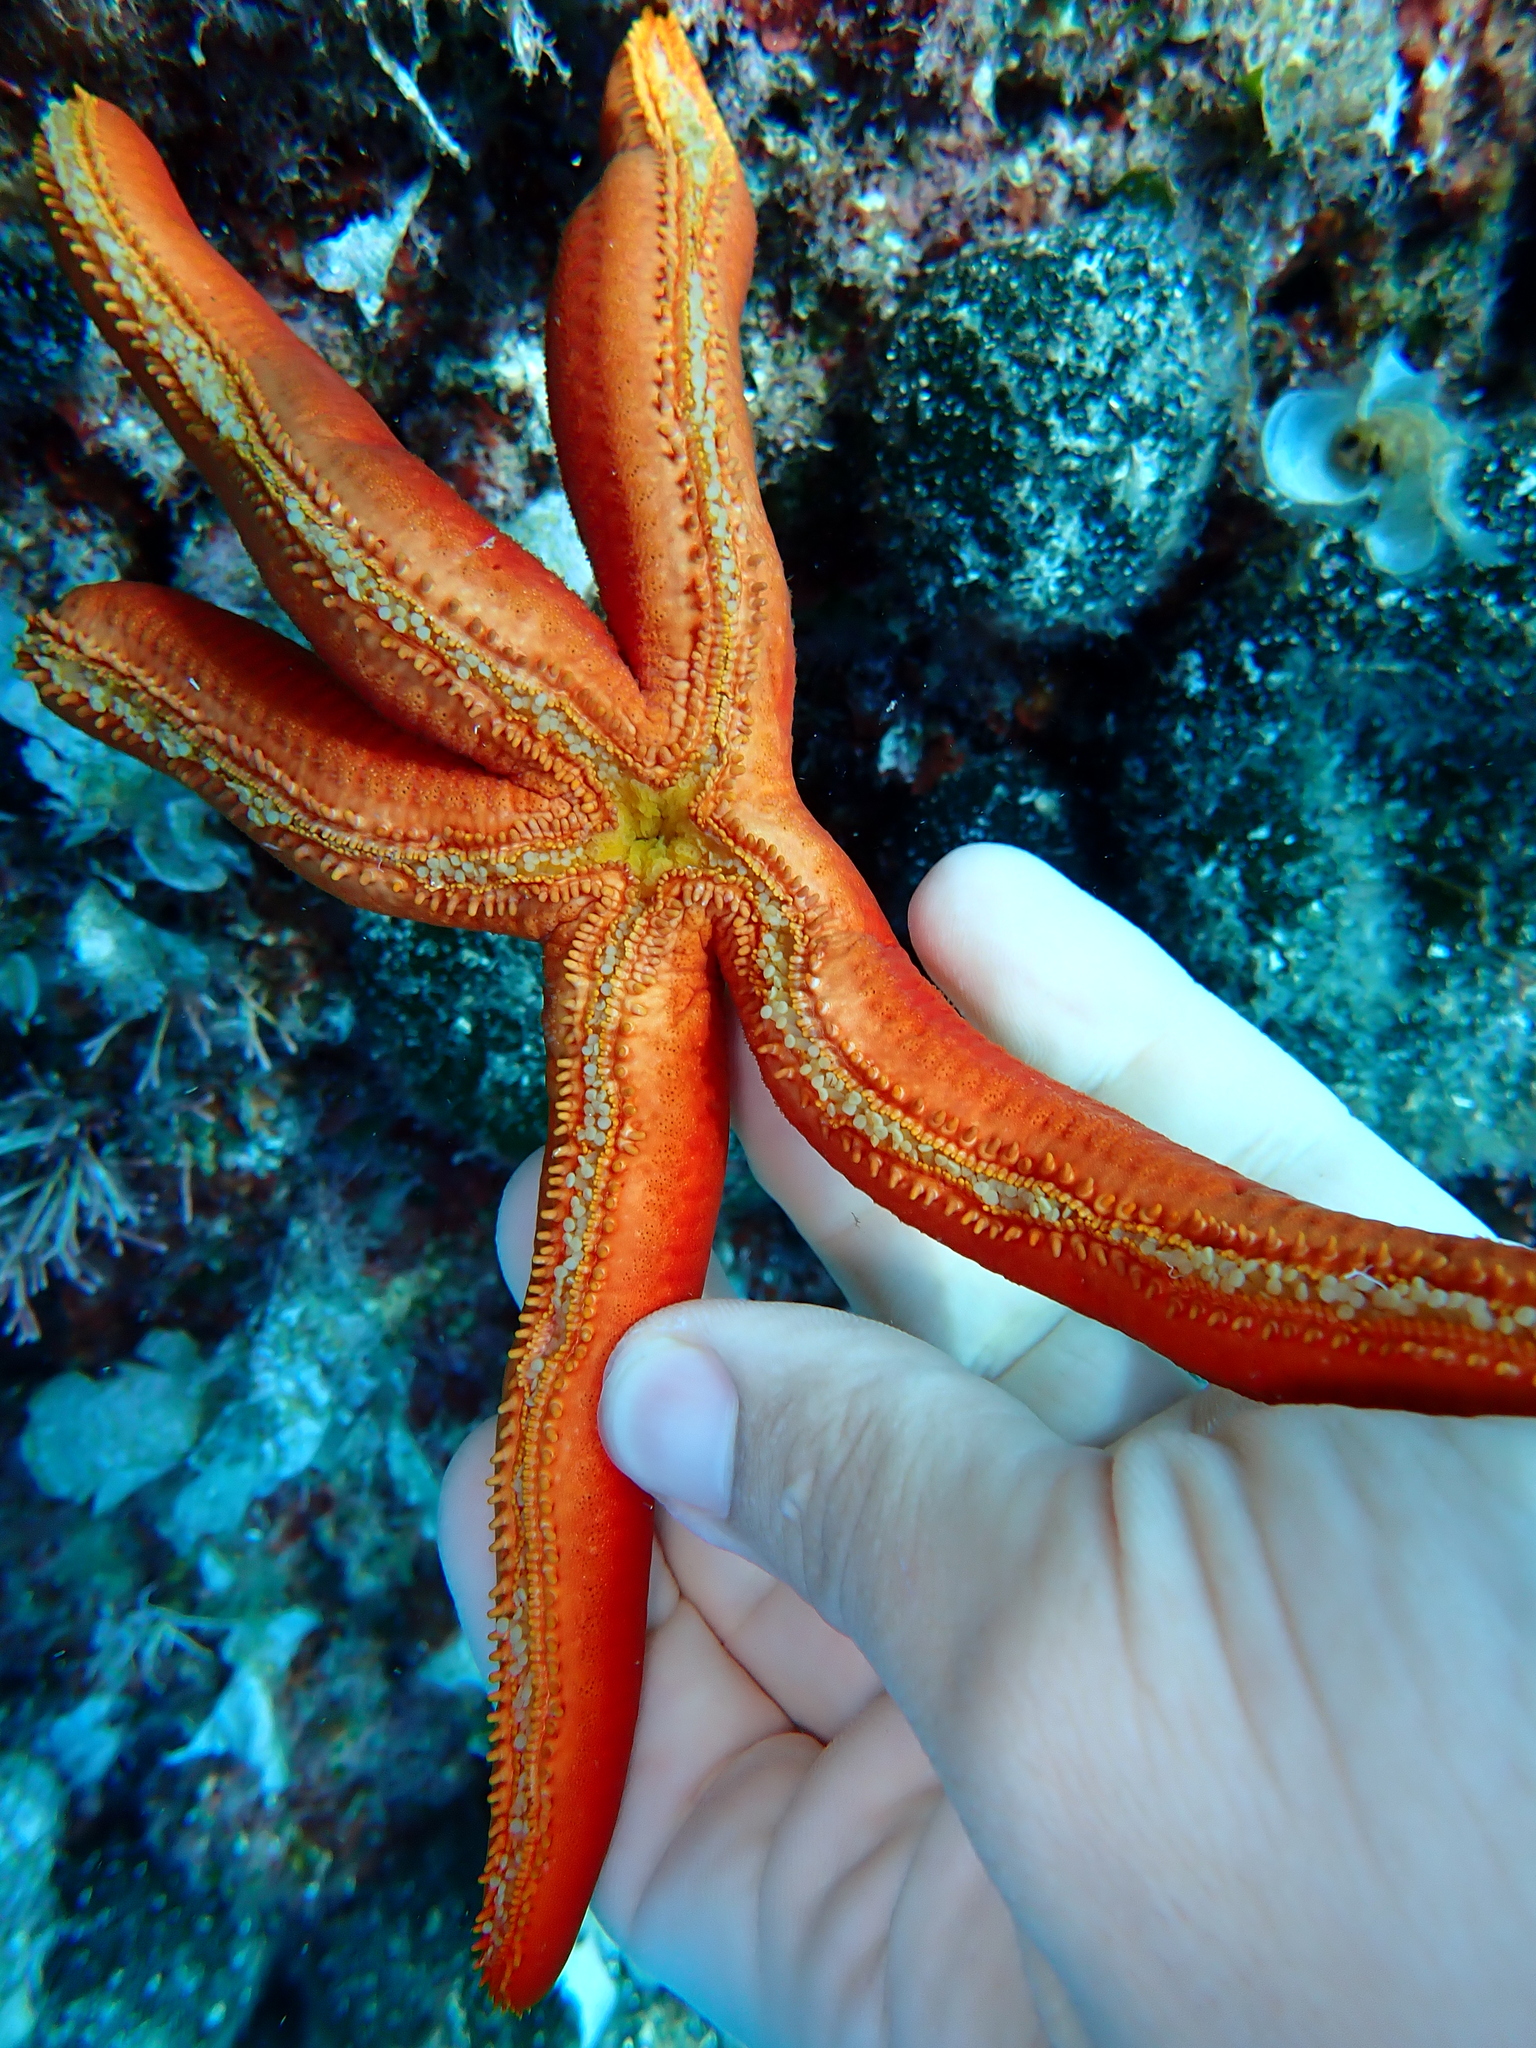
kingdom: Animalia
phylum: Echinodermata
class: Asteroidea
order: Valvatida
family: Ophidiasteridae
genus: Ophidiaster
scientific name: Ophidiaster ophidianus
